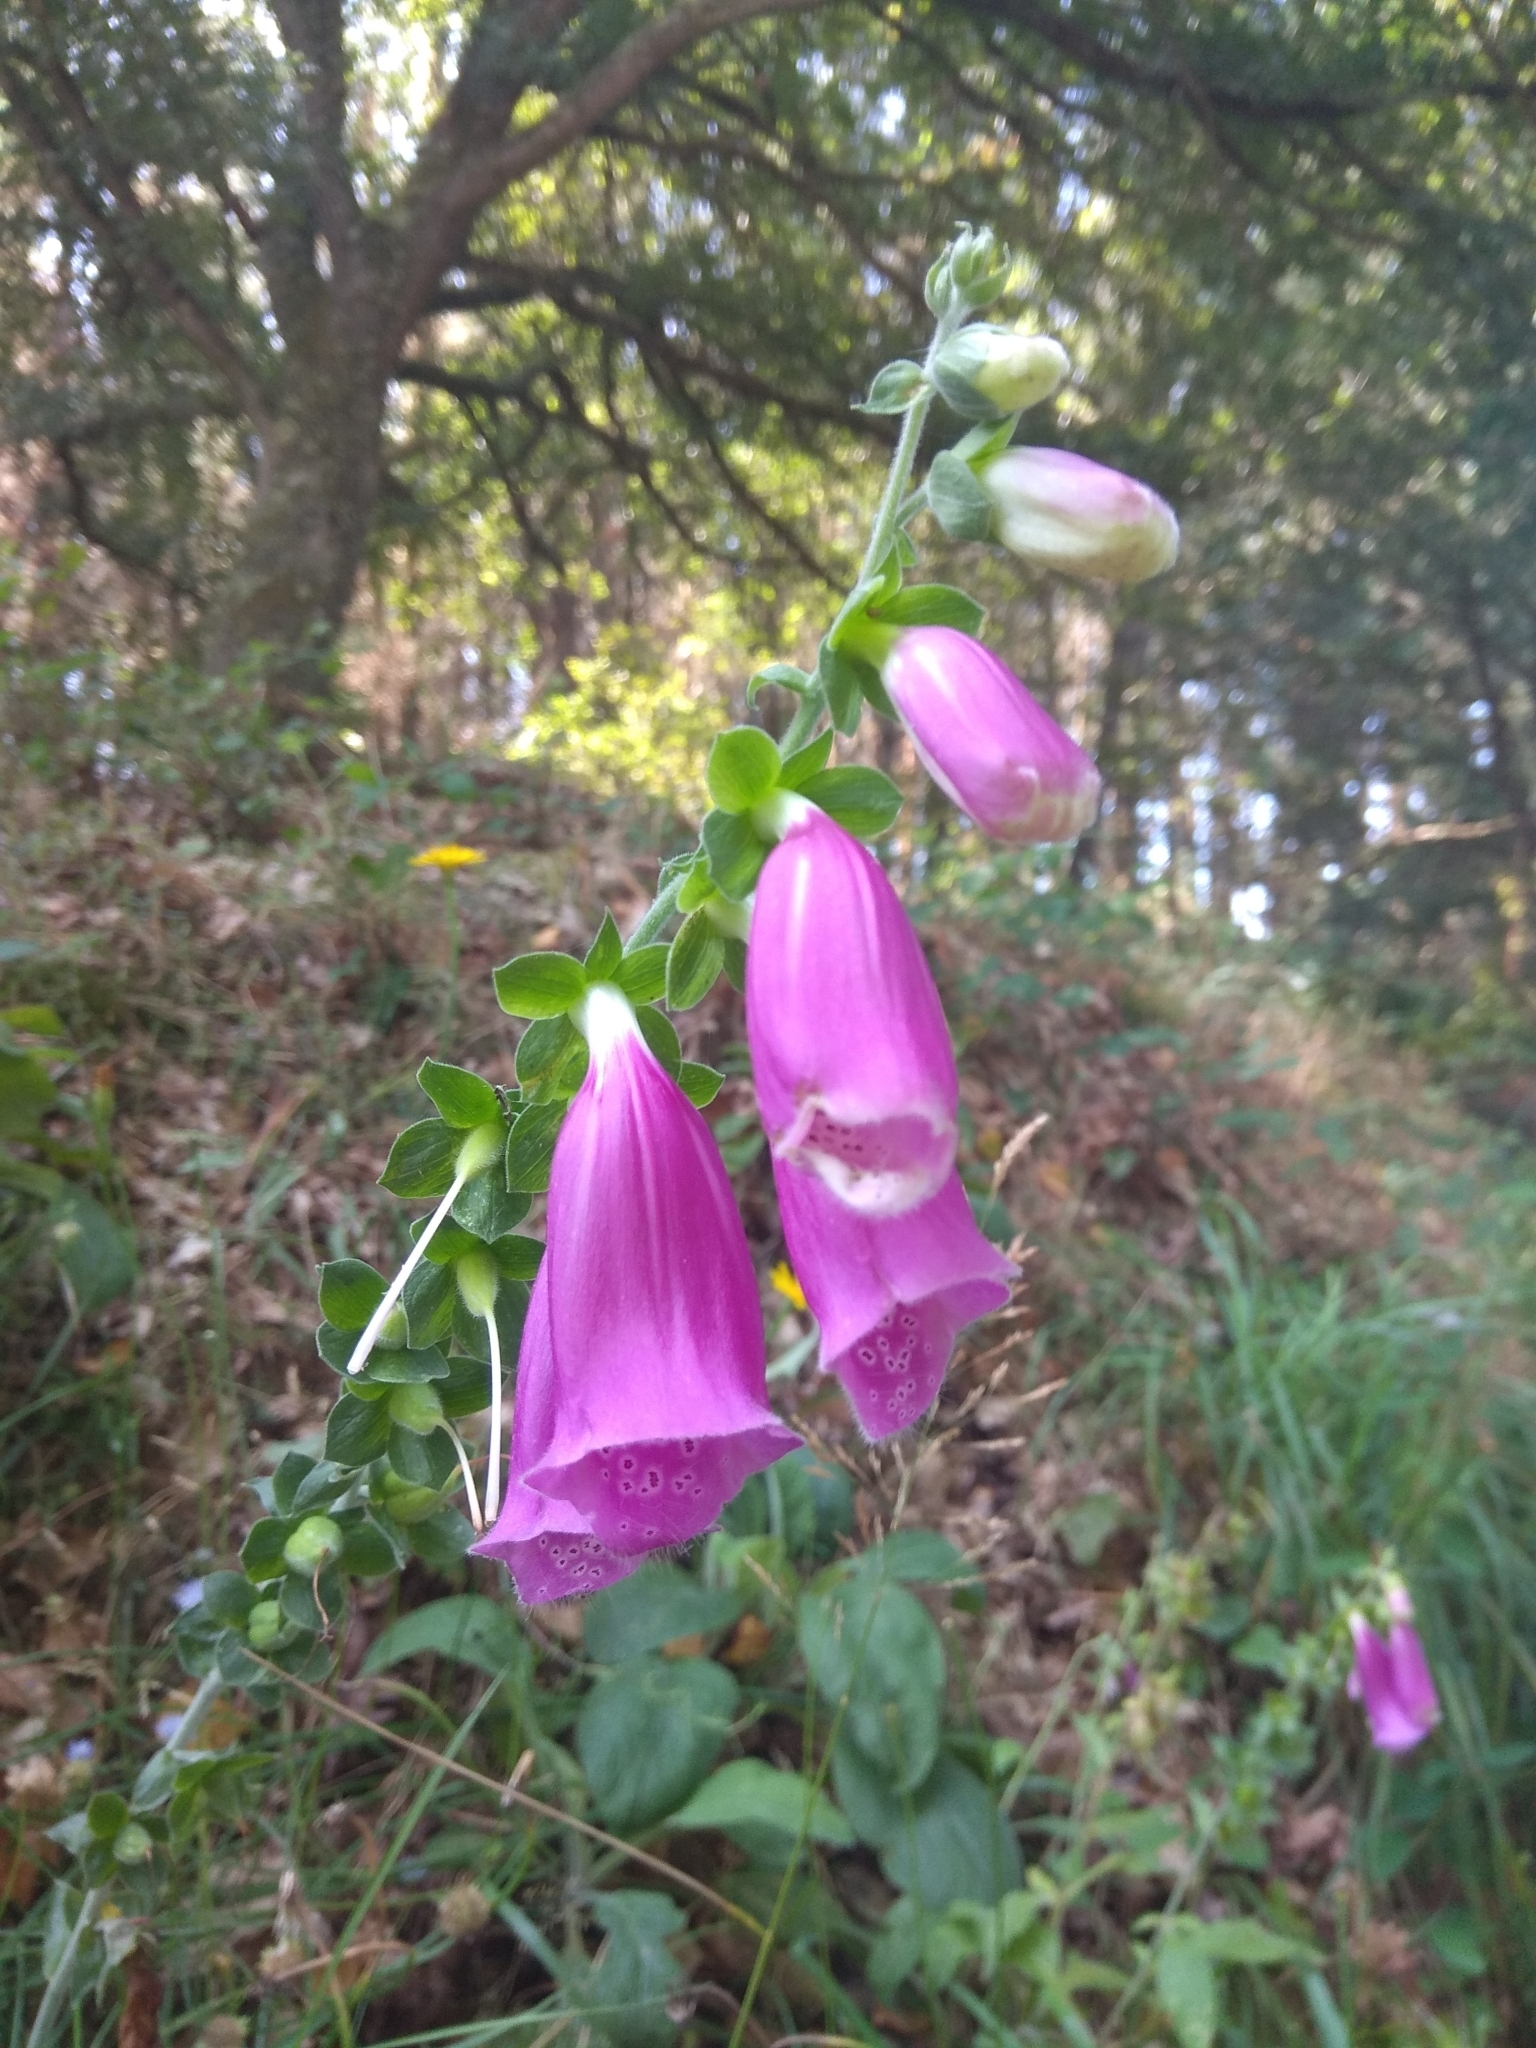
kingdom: Plantae
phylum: Tracheophyta
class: Magnoliopsida
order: Lamiales
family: Plantaginaceae
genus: Digitalis
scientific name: Digitalis purpurea
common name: Foxglove
